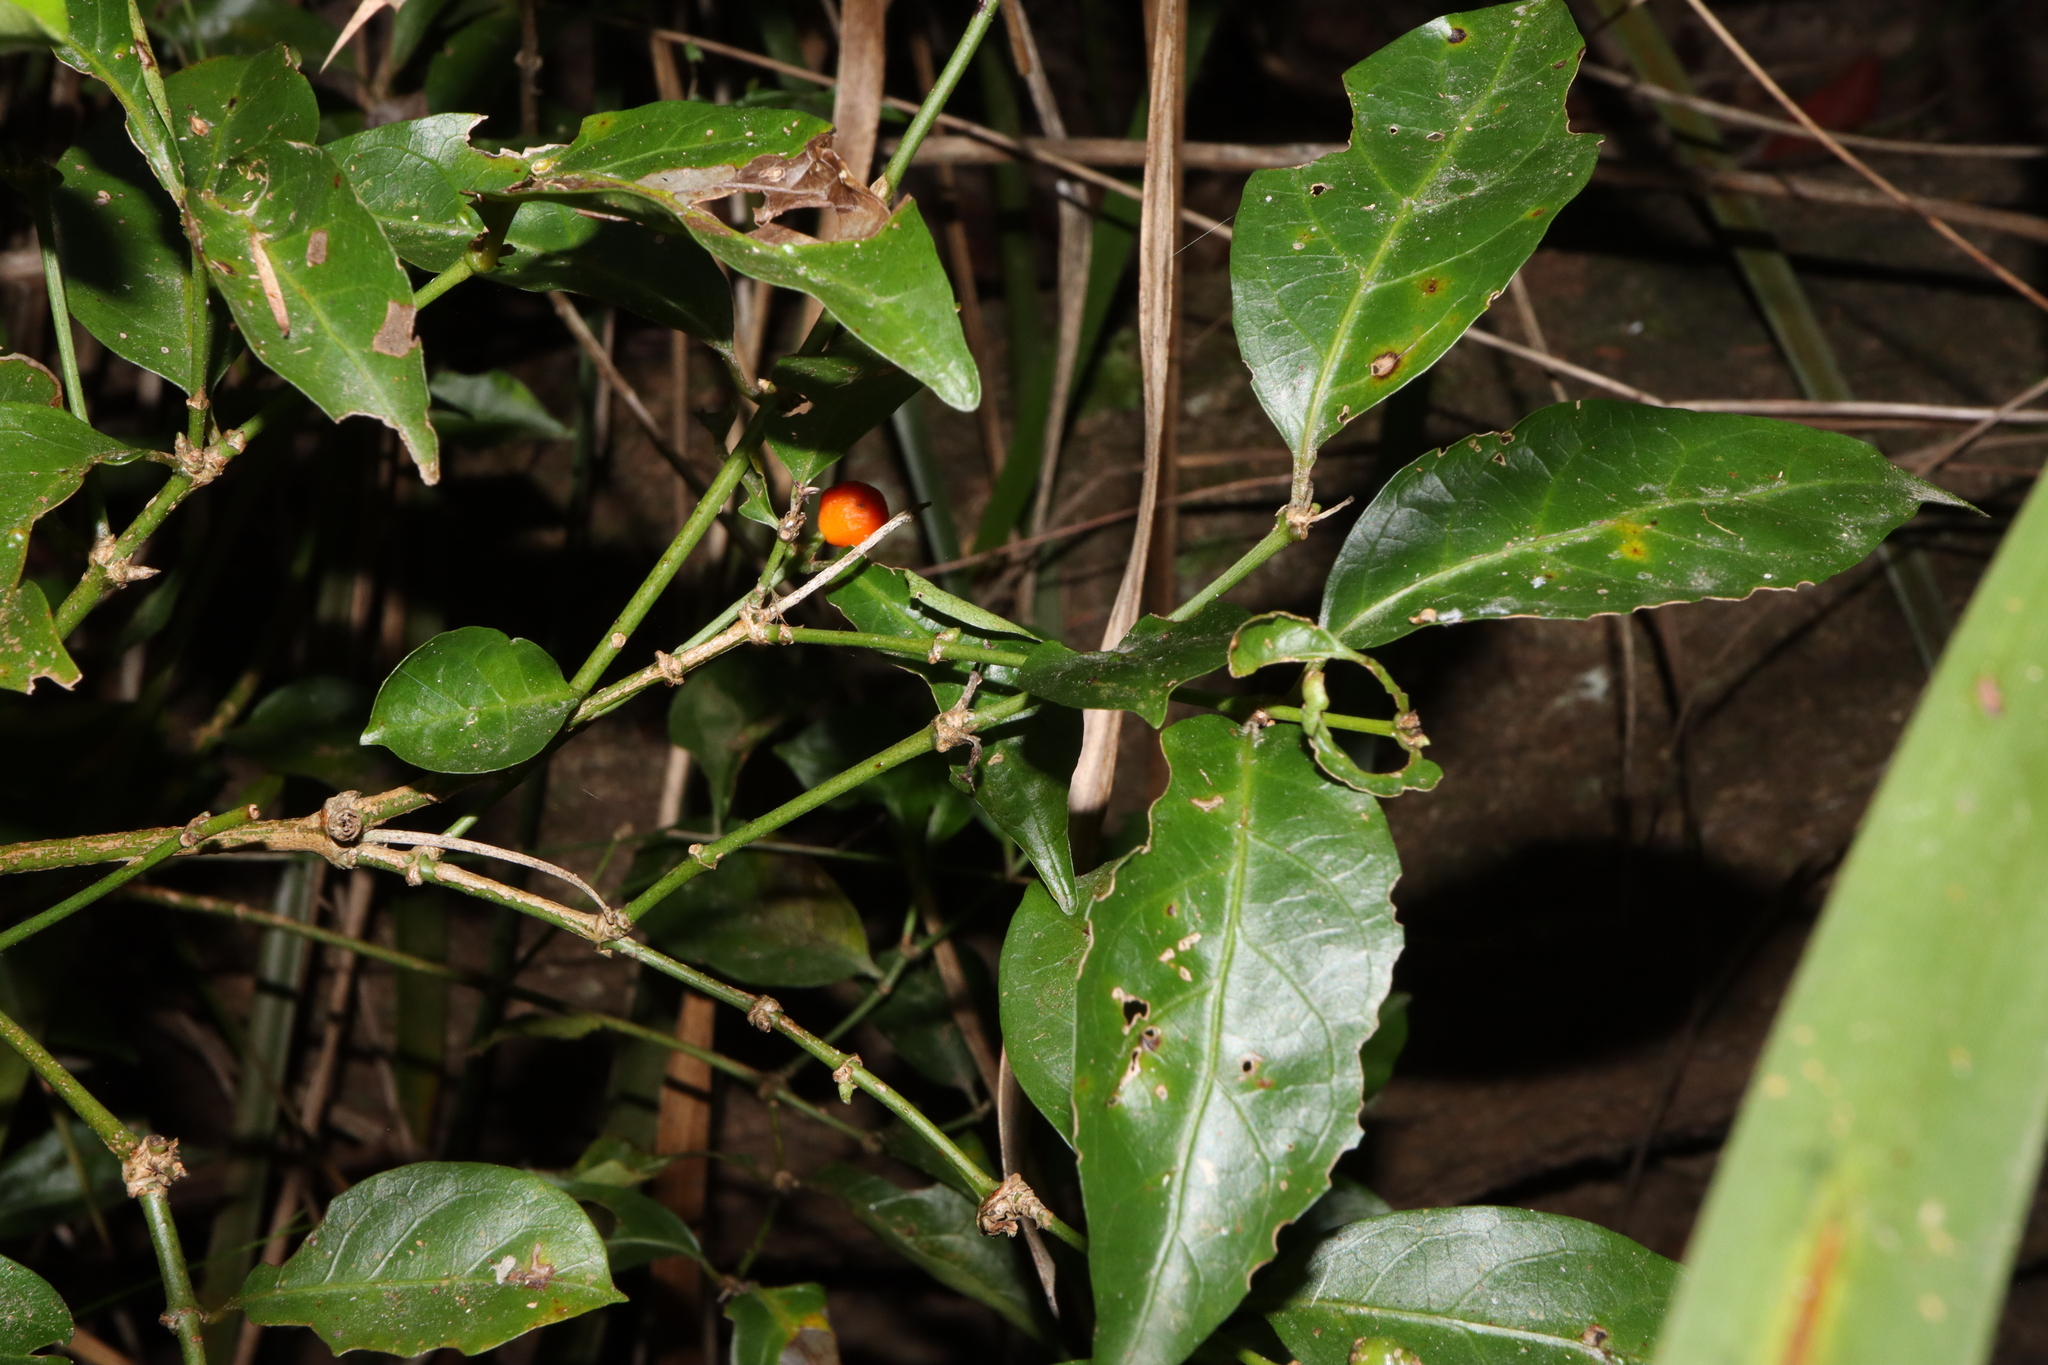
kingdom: Plantae
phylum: Tracheophyta
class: Magnoliopsida
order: Gentianales
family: Rubiaceae
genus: Gynochthodes
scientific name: Gynochthodes jasminoides
